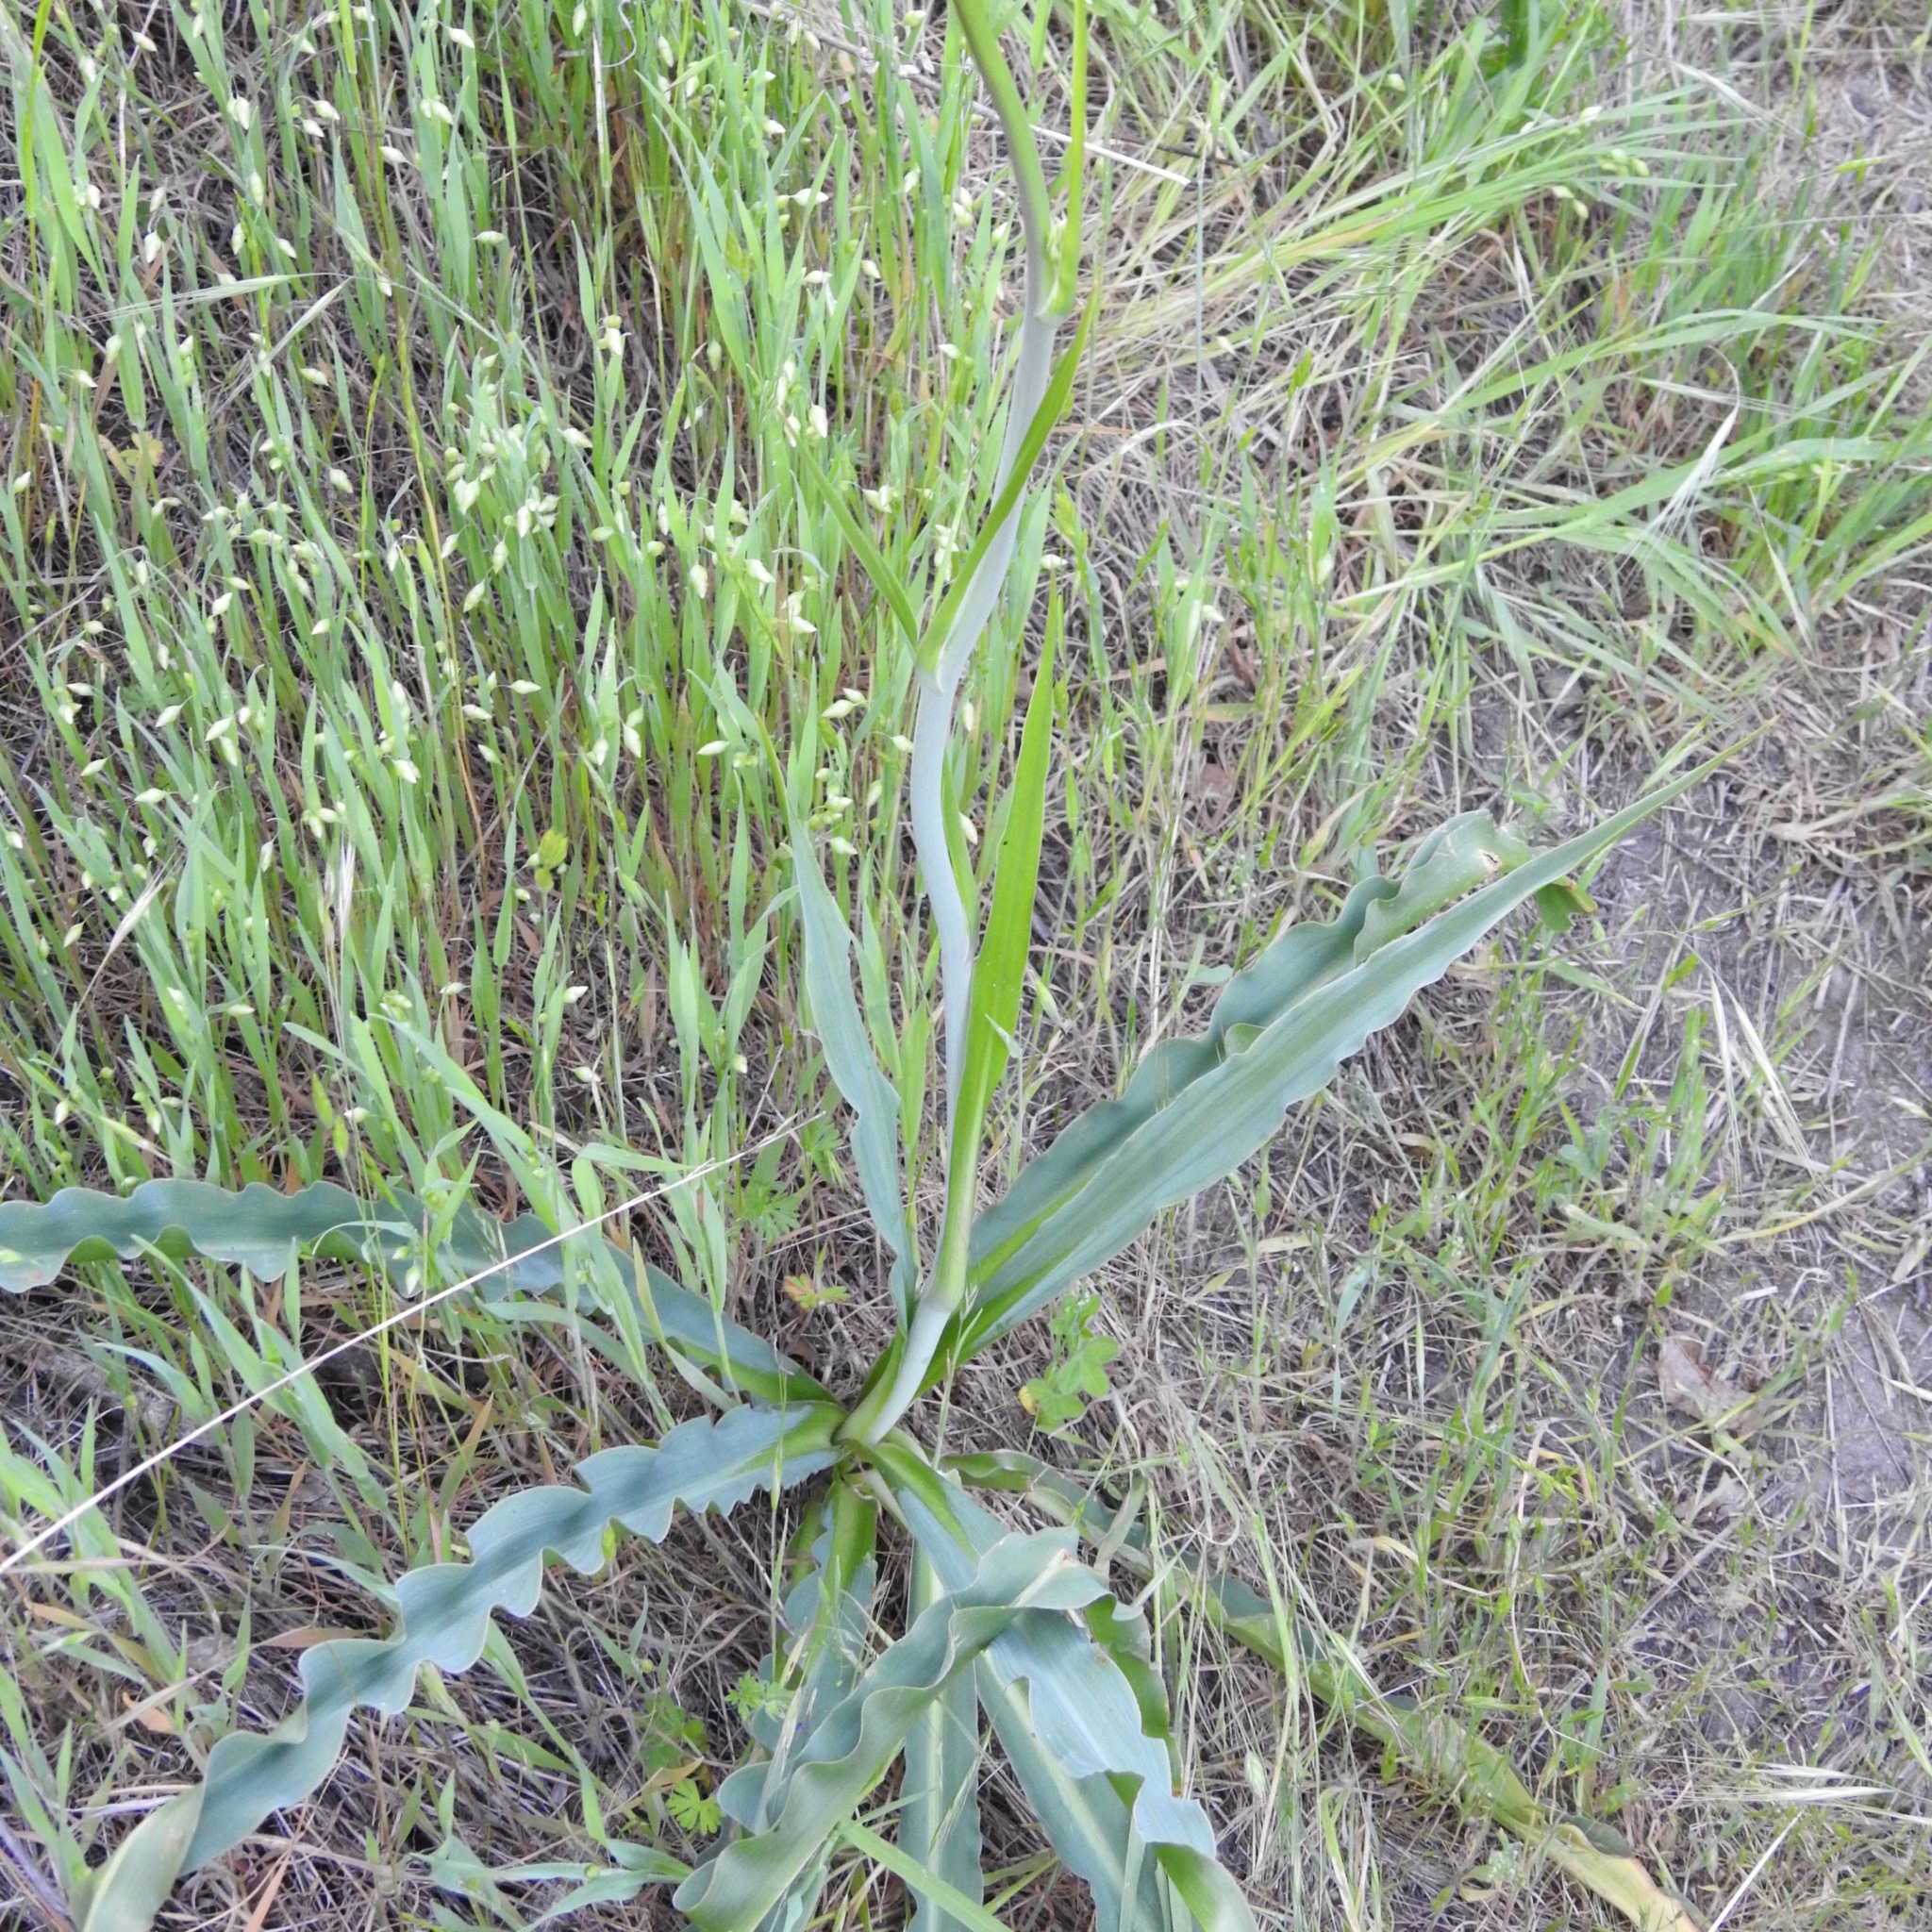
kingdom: Plantae
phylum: Tracheophyta
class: Liliopsida
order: Asparagales
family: Asparagaceae
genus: Chlorogalum
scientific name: Chlorogalum pomeridianum
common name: Amole
